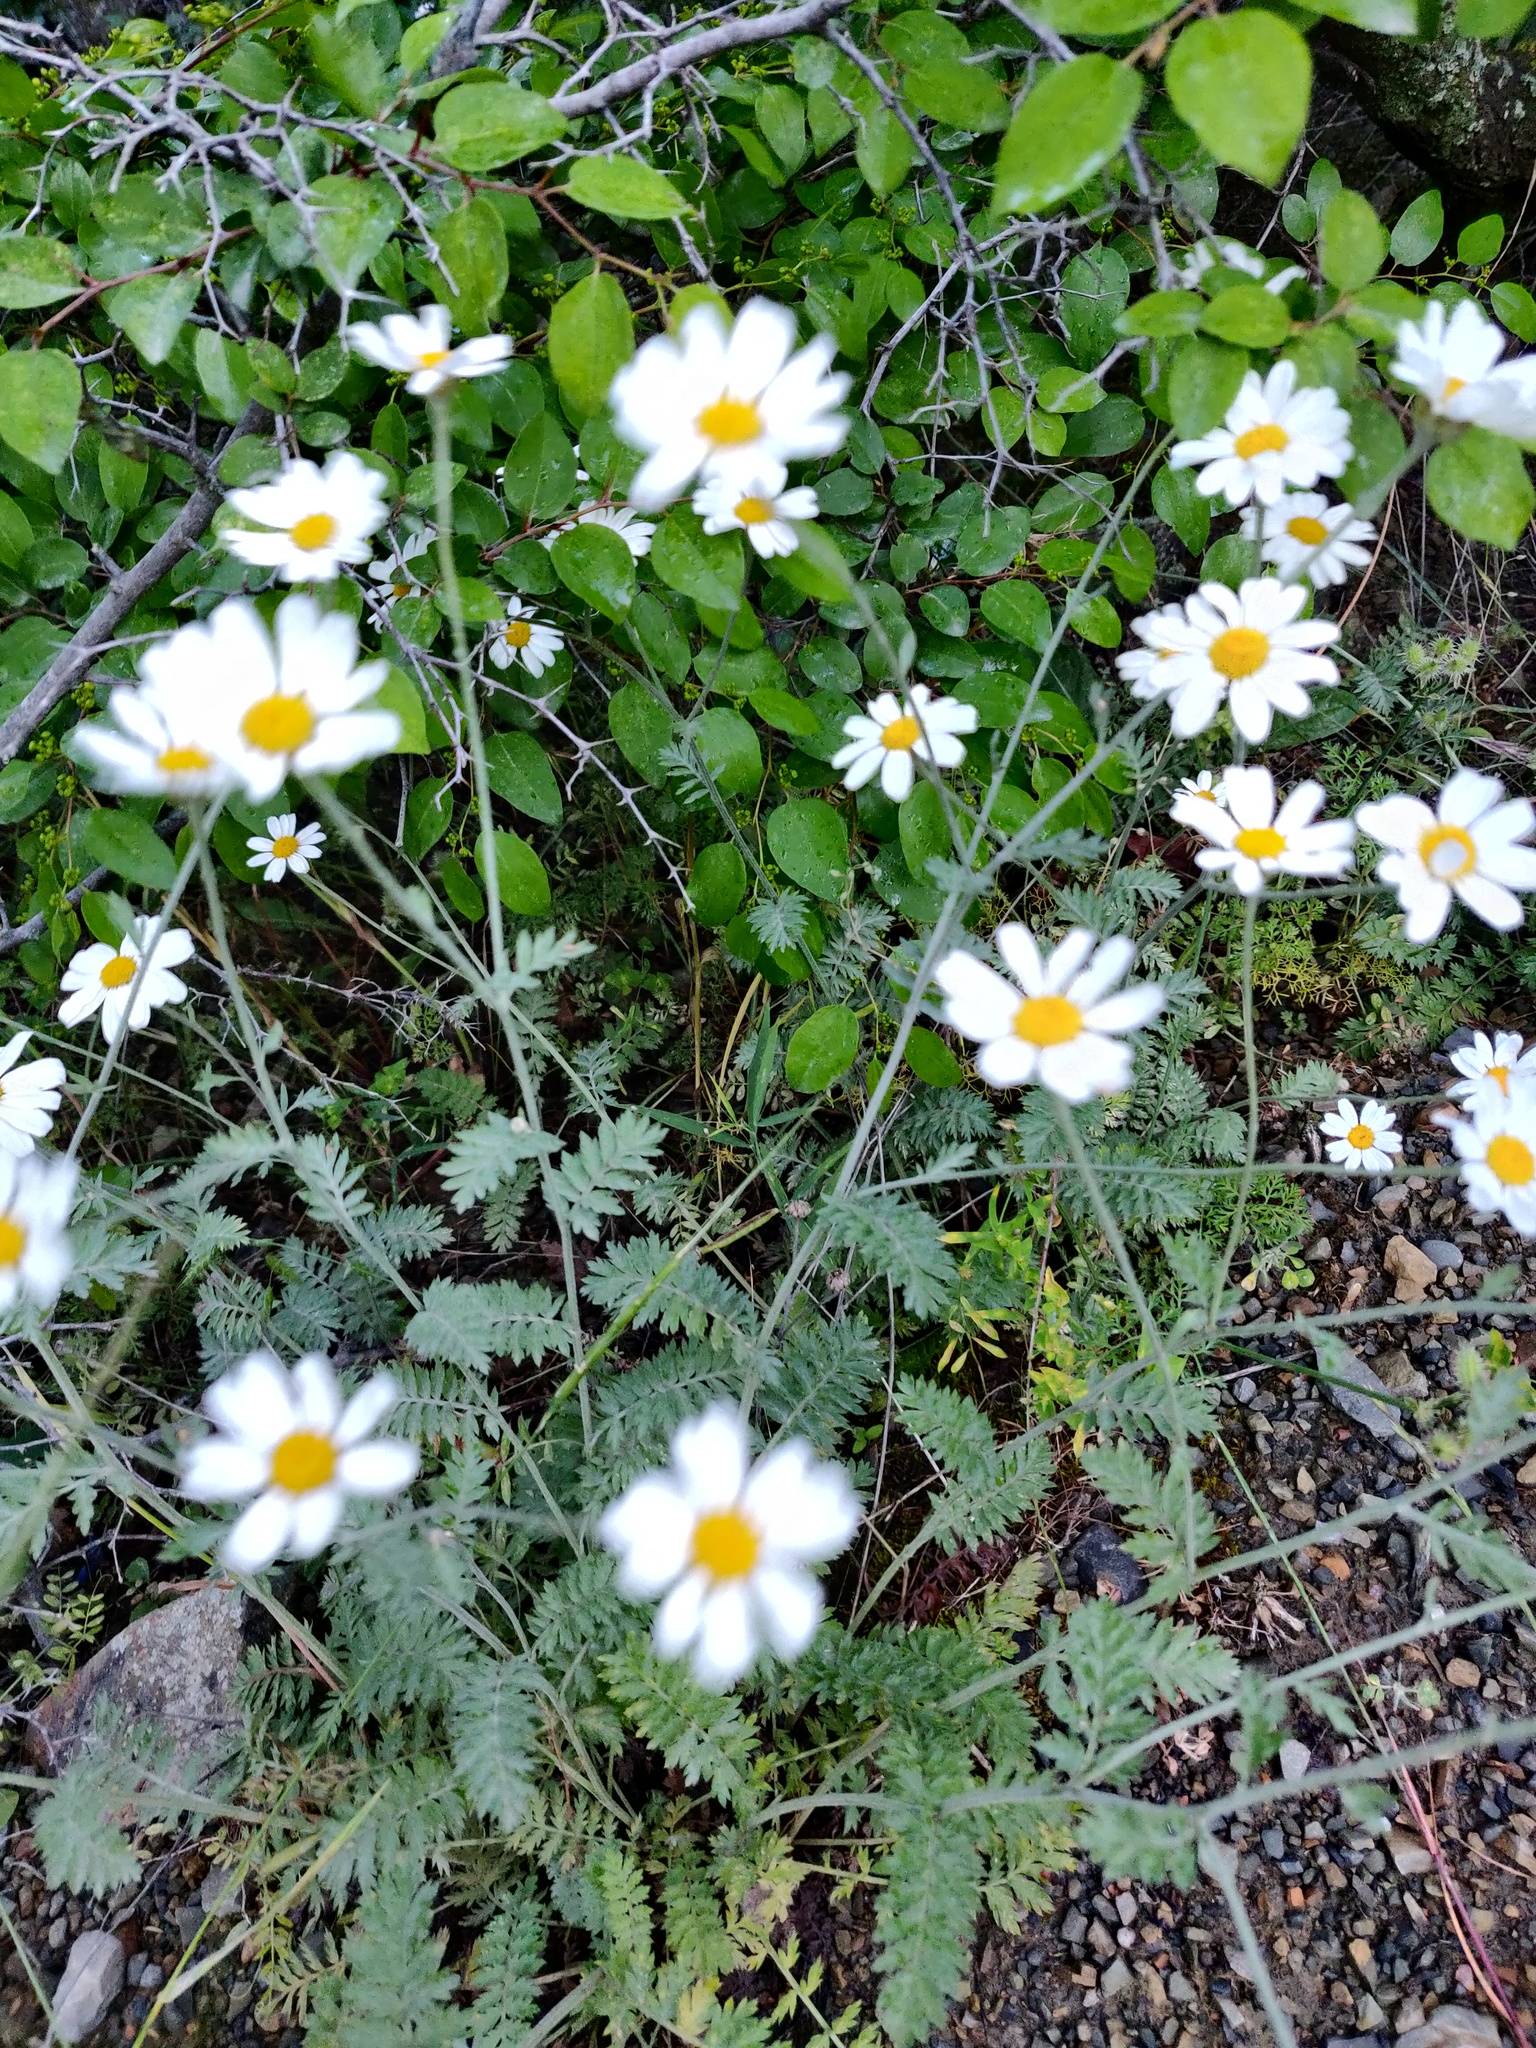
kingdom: Plantae
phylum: Tracheophyta
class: Magnoliopsida
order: Asterales
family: Asteraceae
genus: Tanacetum
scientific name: Tanacetum poteriifolium
